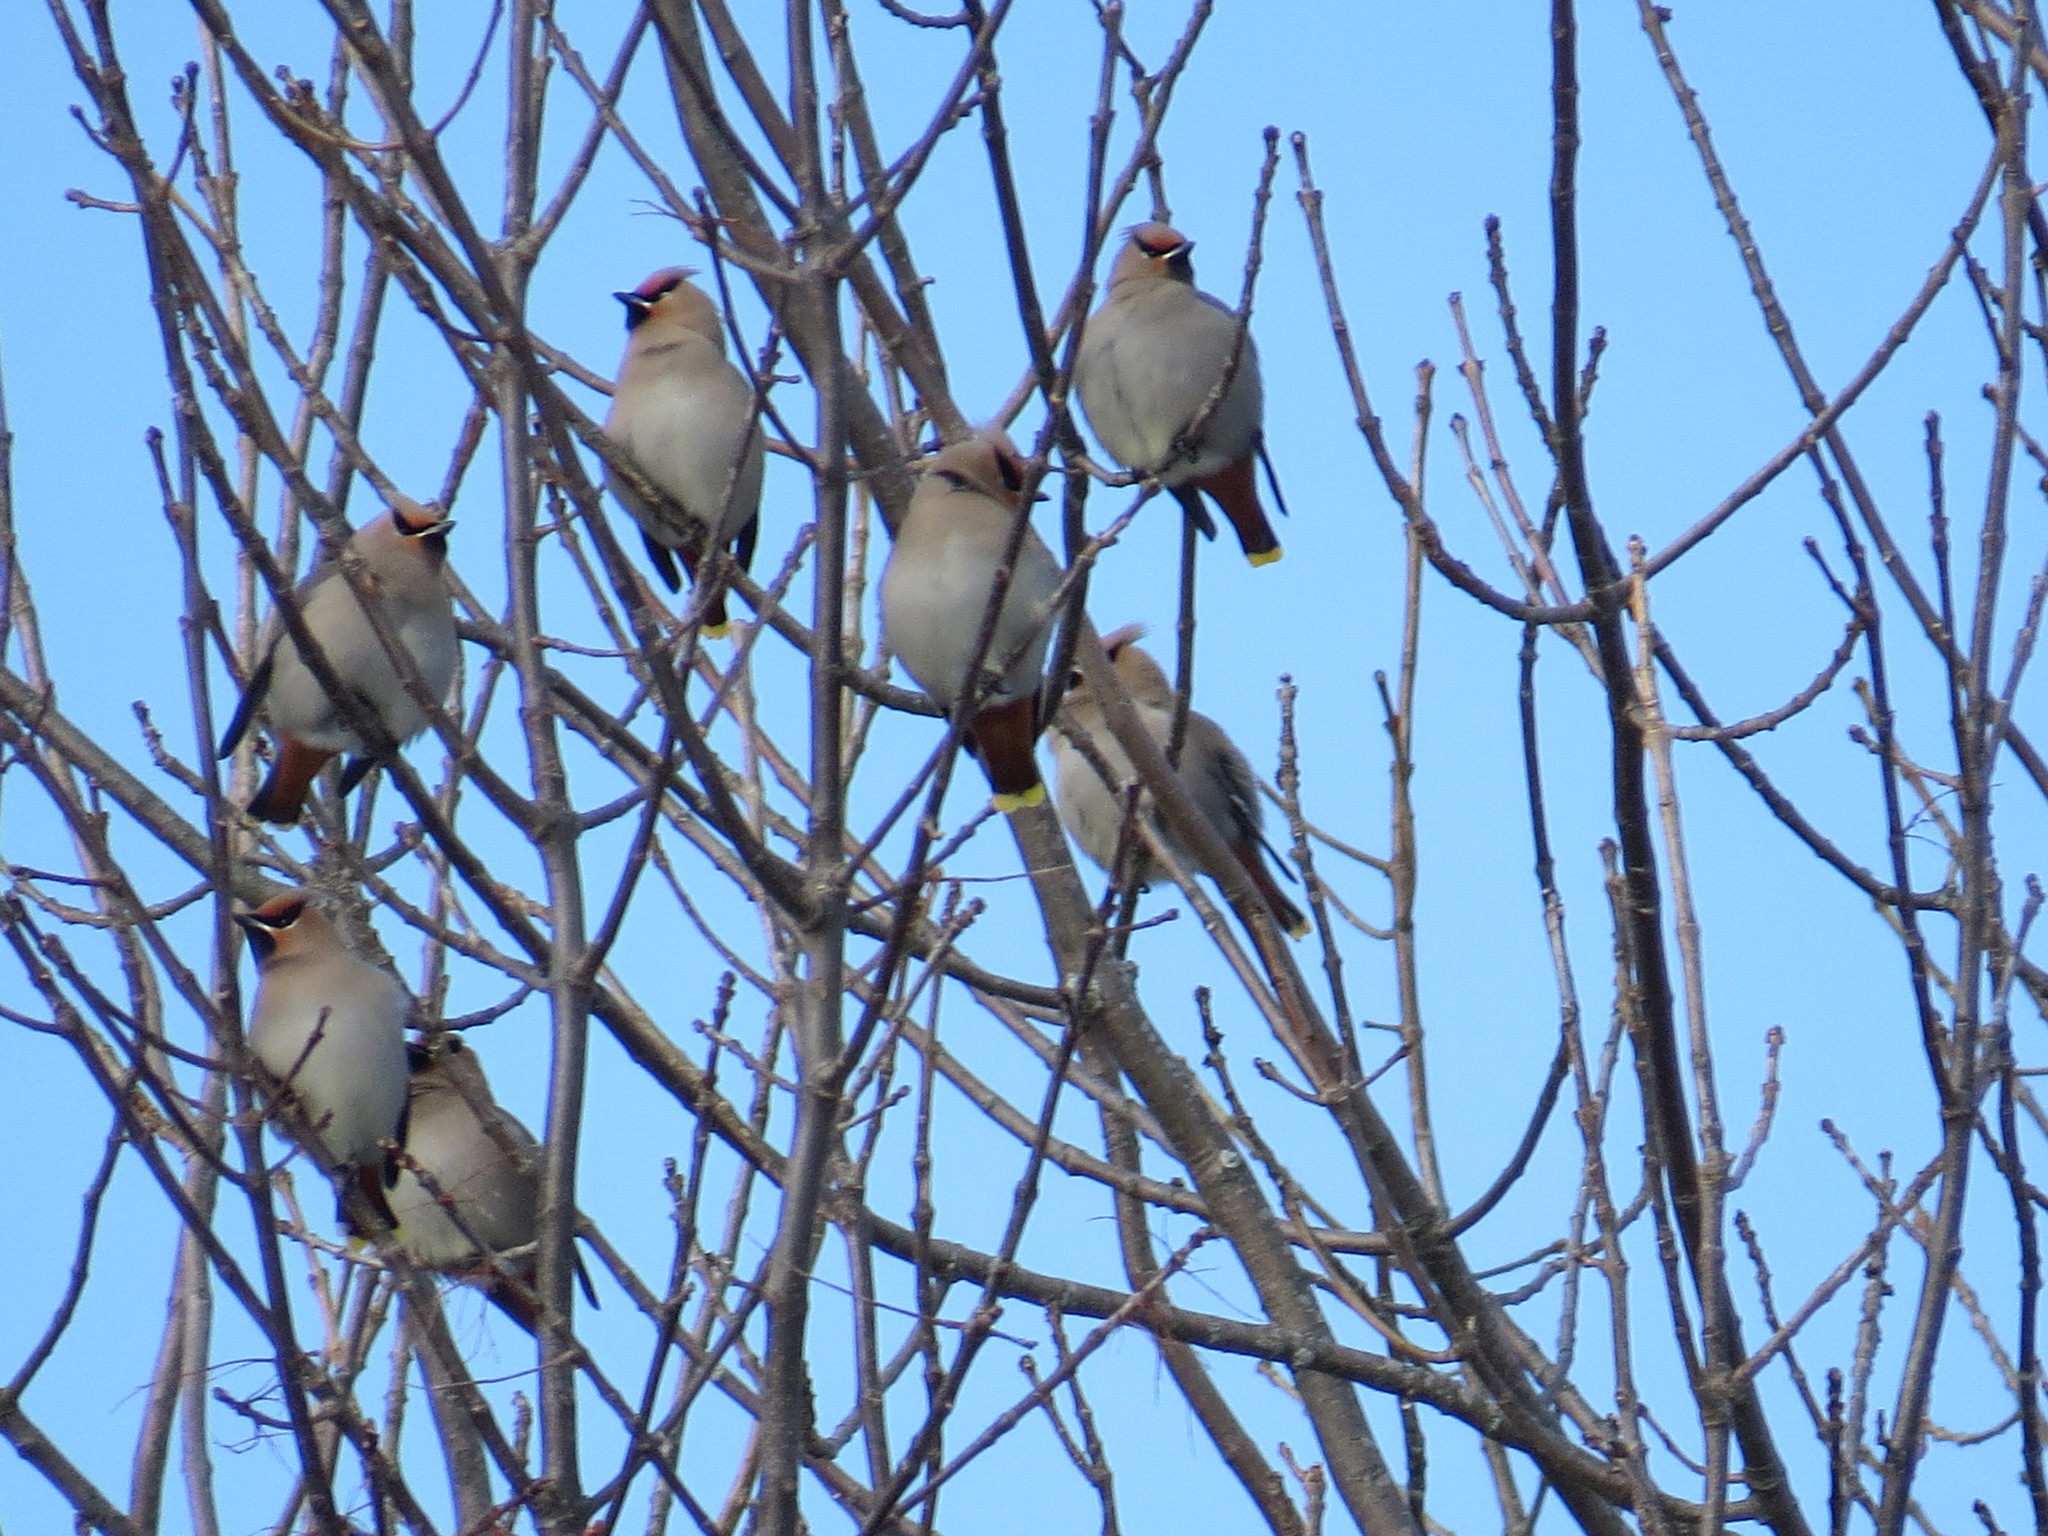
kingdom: Animalia
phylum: Chordata
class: Aves
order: Passeriformes
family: Bombycillidae
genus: Bombycilla
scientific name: Bombycilla garrulus
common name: Bohemian waxwing
